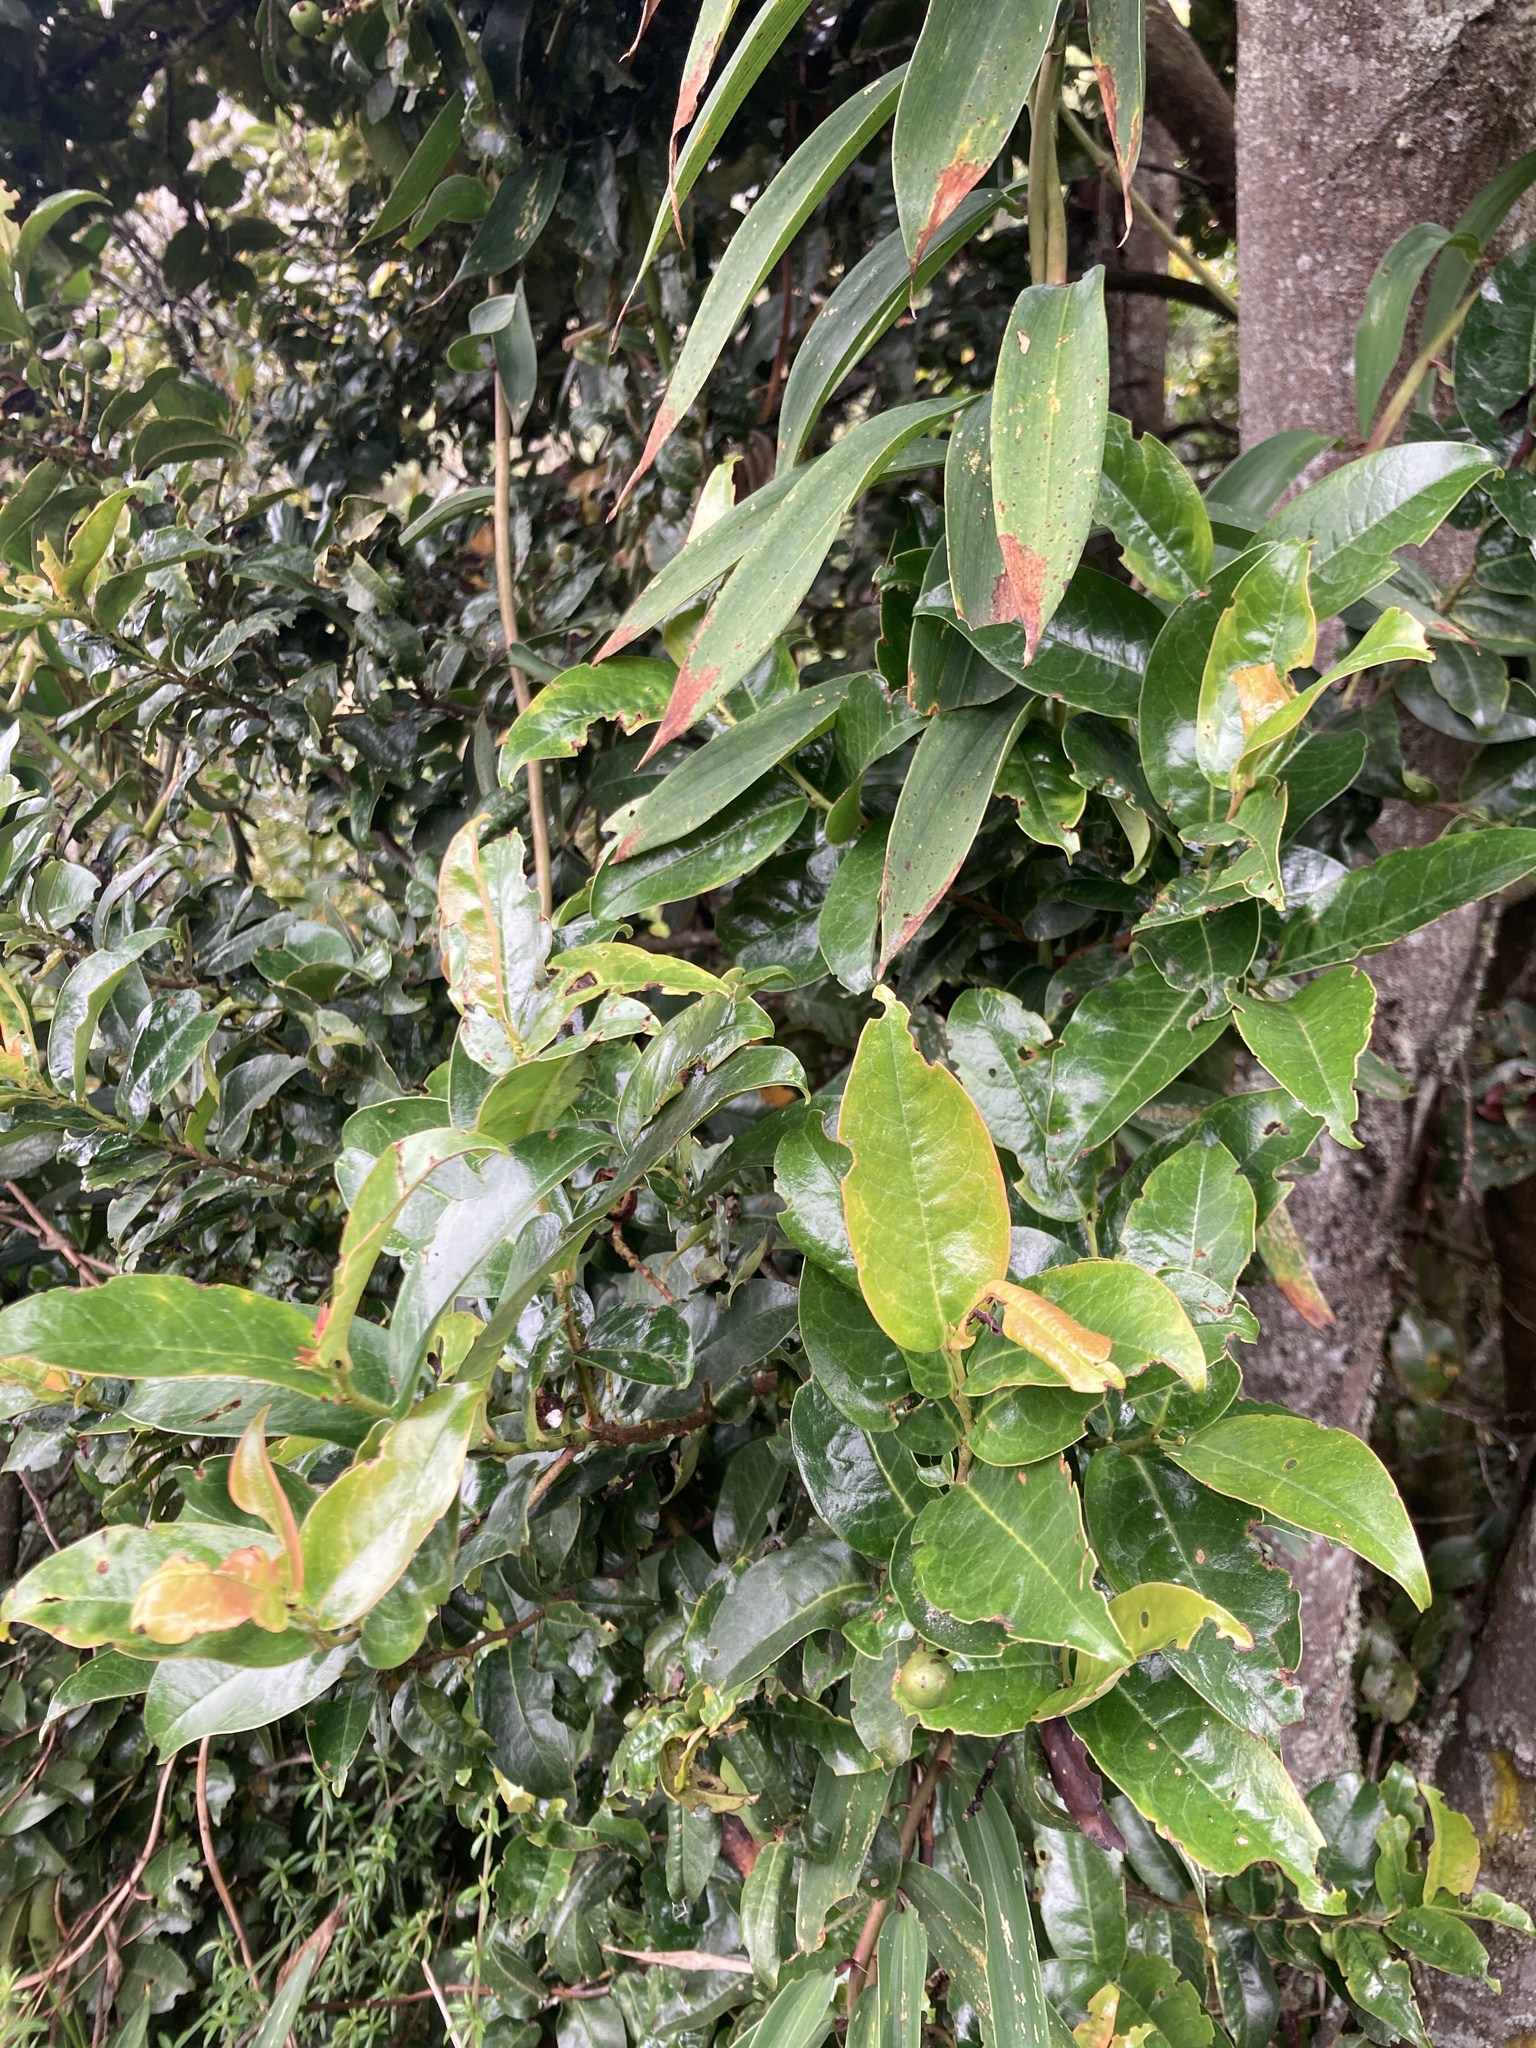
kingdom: Plantae
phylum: Tracheophyta
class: Magnoliopsida
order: Rosales
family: Rosaceae
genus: Prunus
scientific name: Prunus buxifolia
